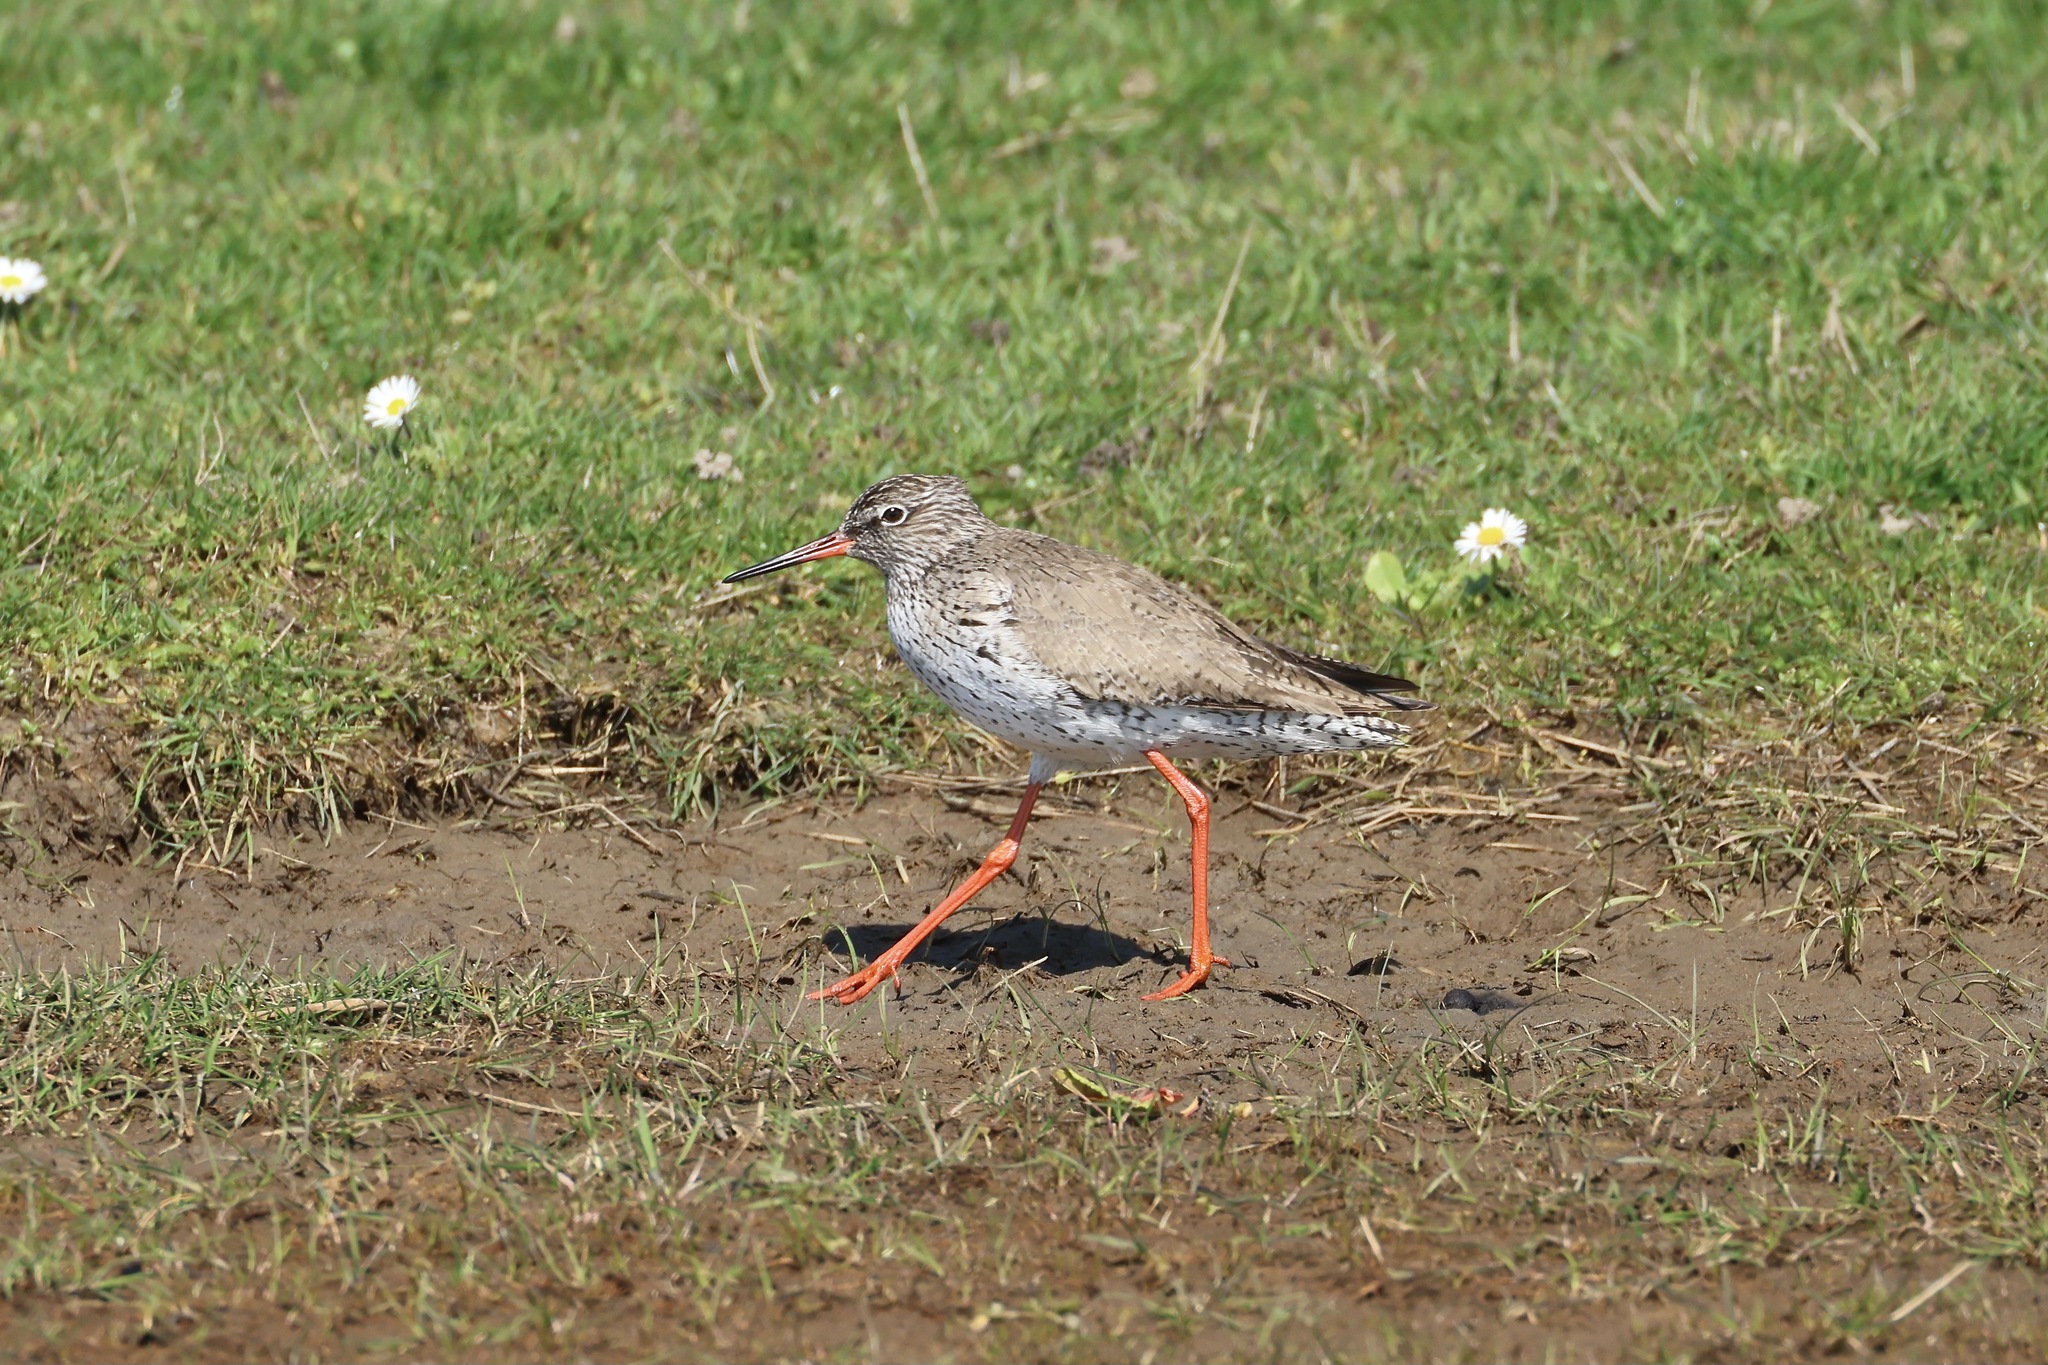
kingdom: Animalia
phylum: Chordata
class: Aves
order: Charadriiformes
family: Scolopacidae
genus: Tringa
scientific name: Tringa totanus
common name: Common redshank
